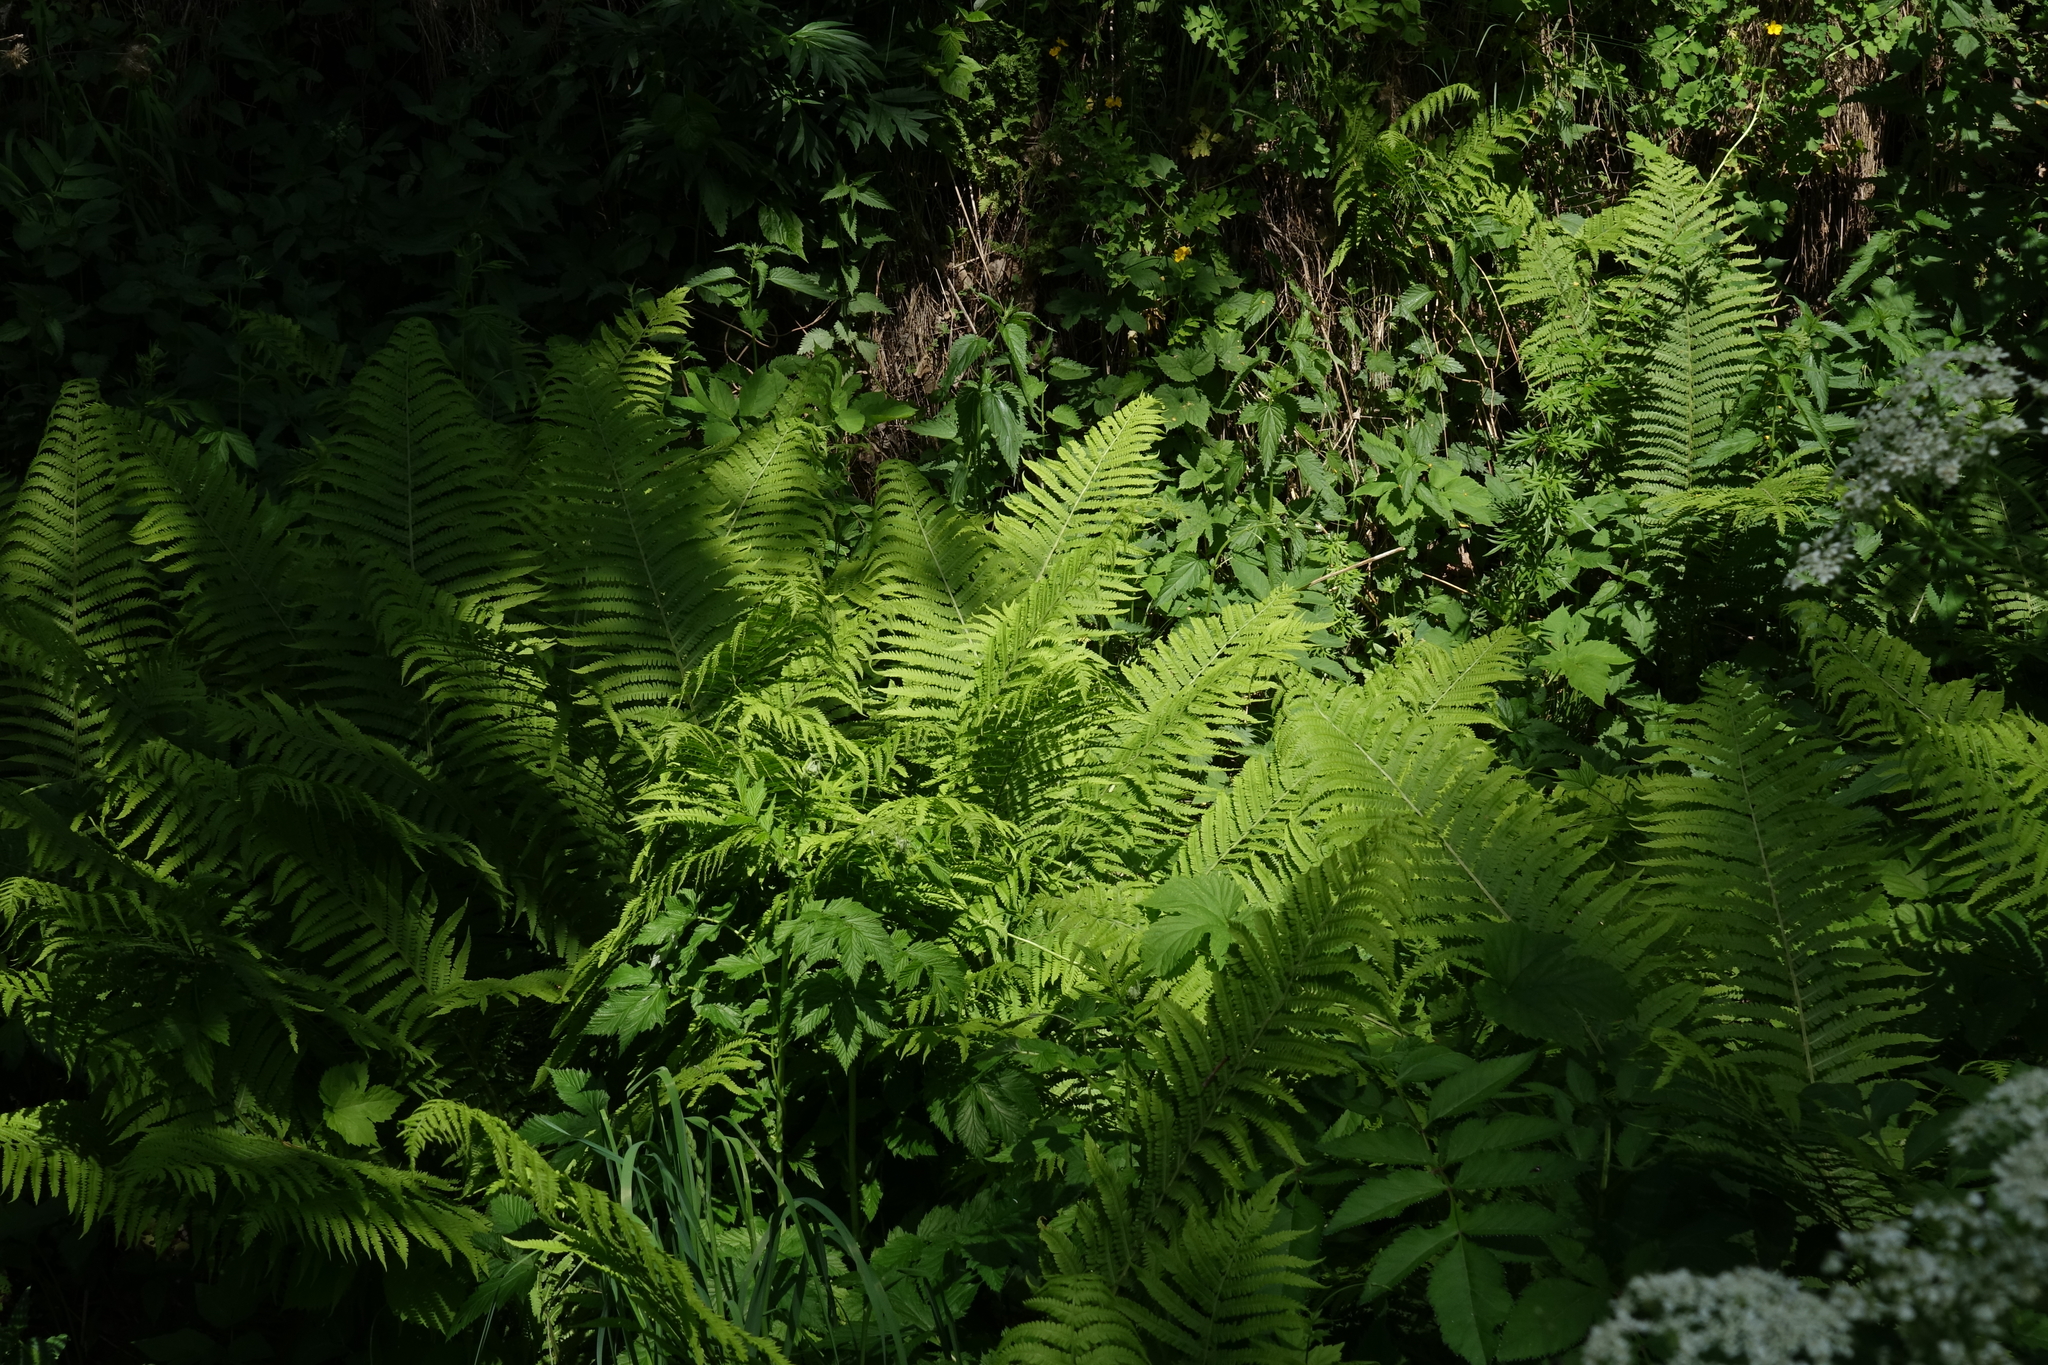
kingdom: Plantae
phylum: Tracheophyta
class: Polypodiopsida
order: Polypodiales
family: Onocleaceae
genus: Matteuccia
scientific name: Matteuccia struthiopteris
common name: Ostrich fern
